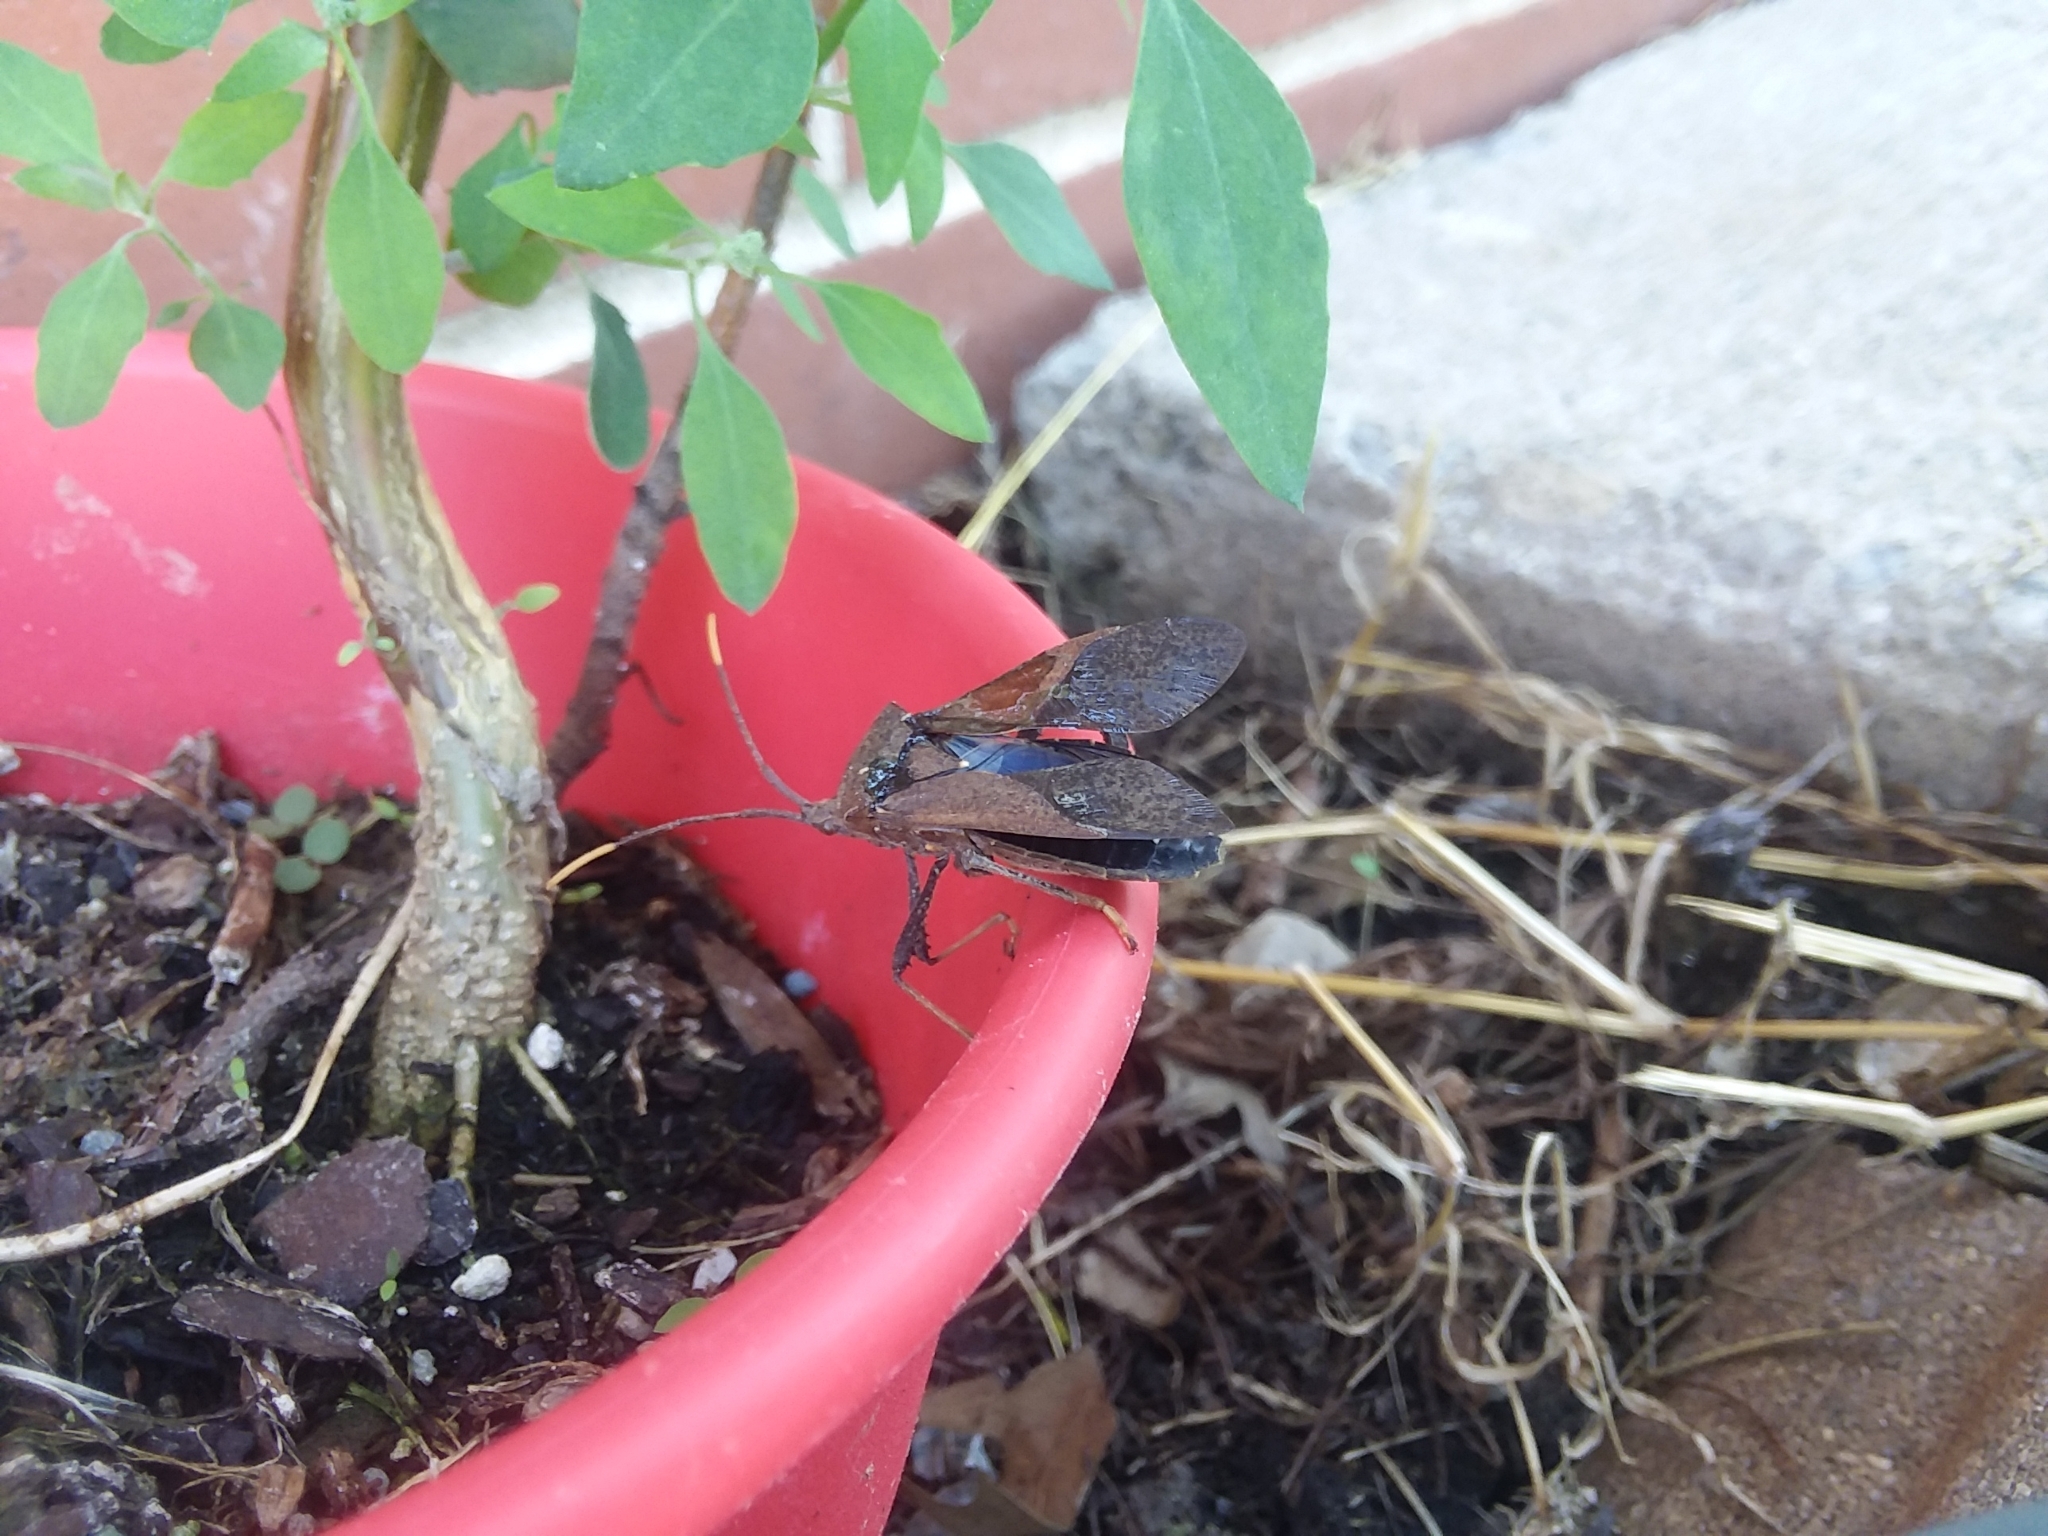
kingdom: Animalia
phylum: Arthropoda
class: Insecta
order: Hemiptera
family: Coreidae
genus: Acanthocephala
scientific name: Acanthocephala terminalis
